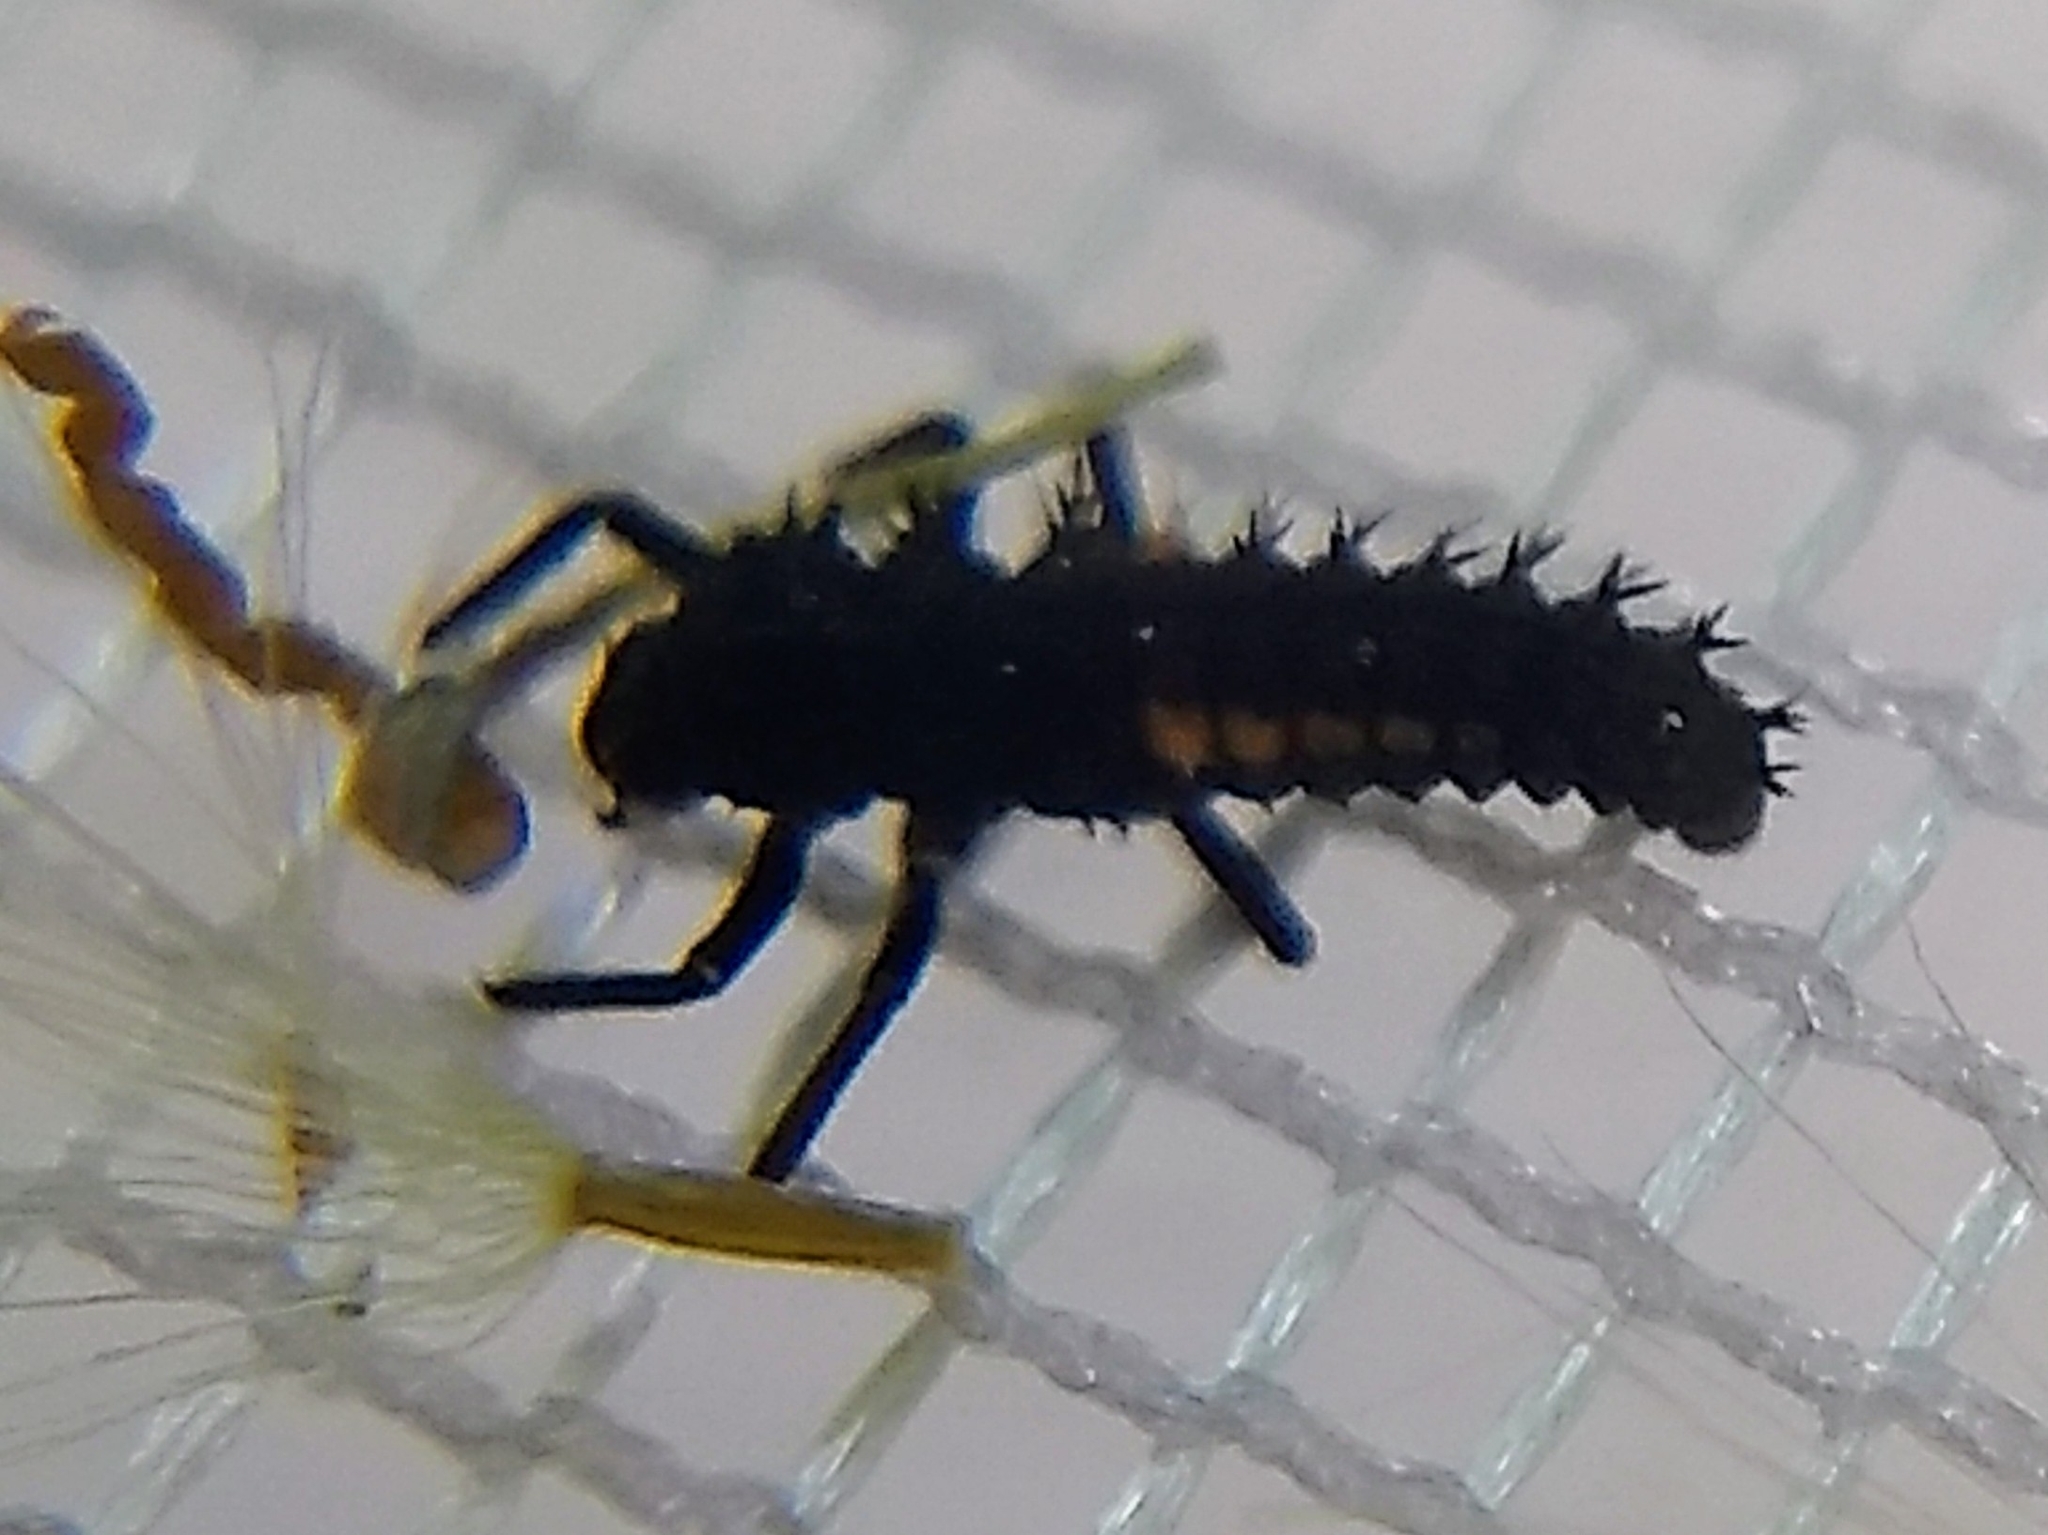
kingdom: Animalia
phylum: Arthropoda
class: Insecta
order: Coleoptera
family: Coccinellidae
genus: Harmonia
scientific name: Harmonia axyridis
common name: Harlequin ladybird
